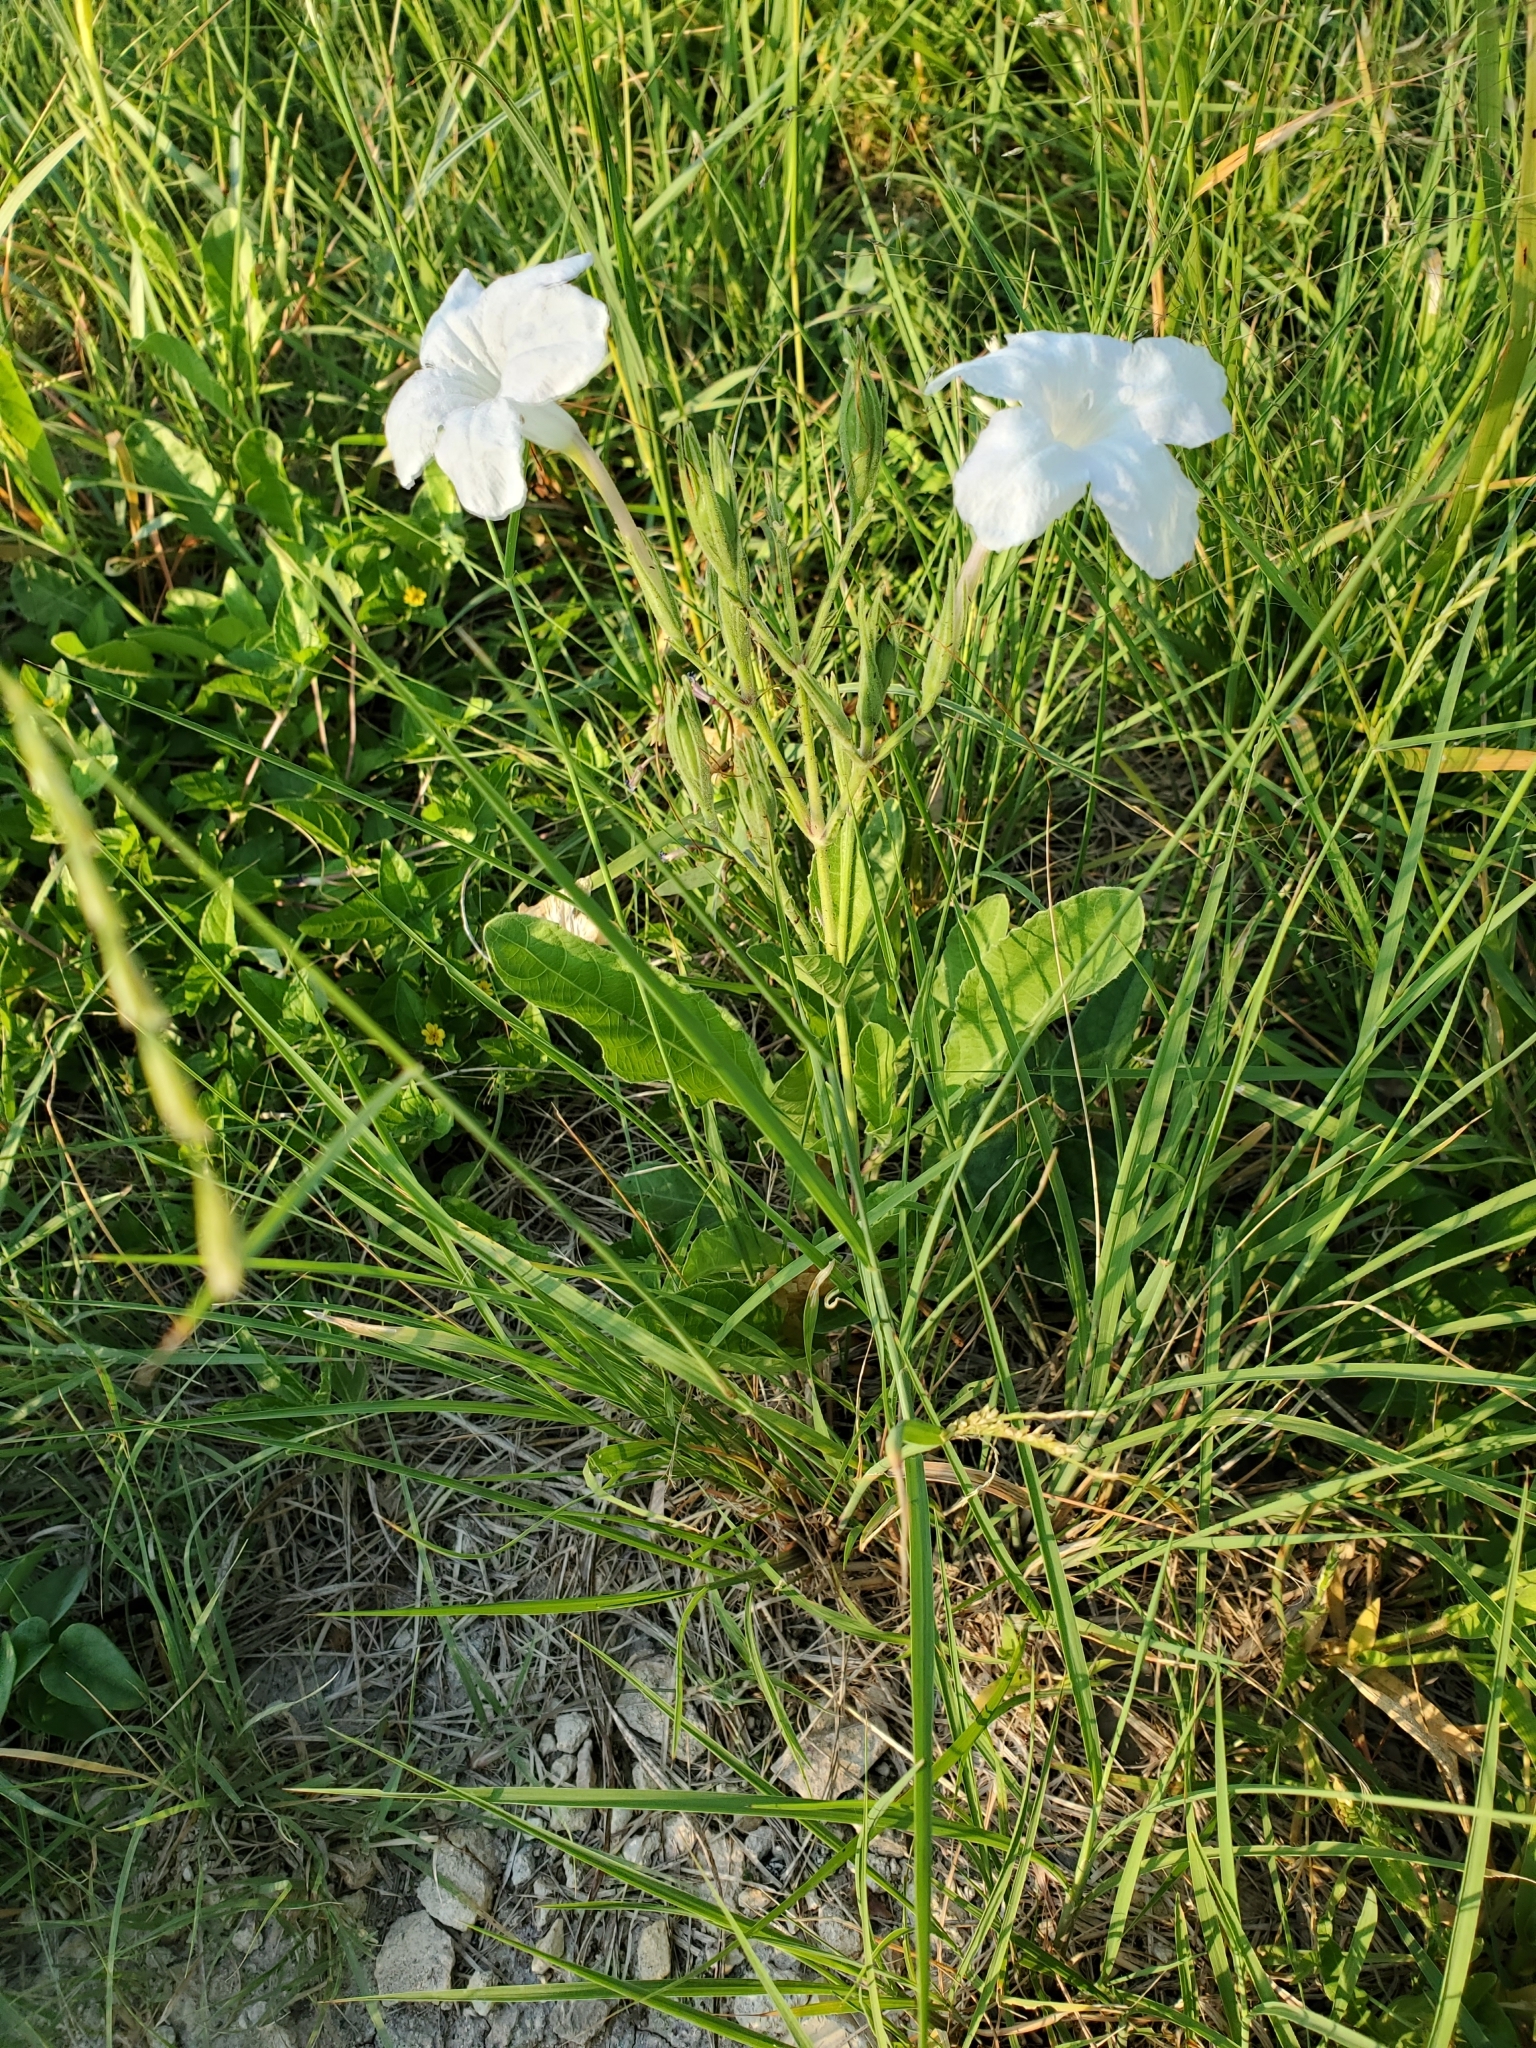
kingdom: Plantae
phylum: Tracheophyta
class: Magnoliopsida
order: Lamiales
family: Acanthaceae
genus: Ruellia
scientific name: Ruellia metziae
